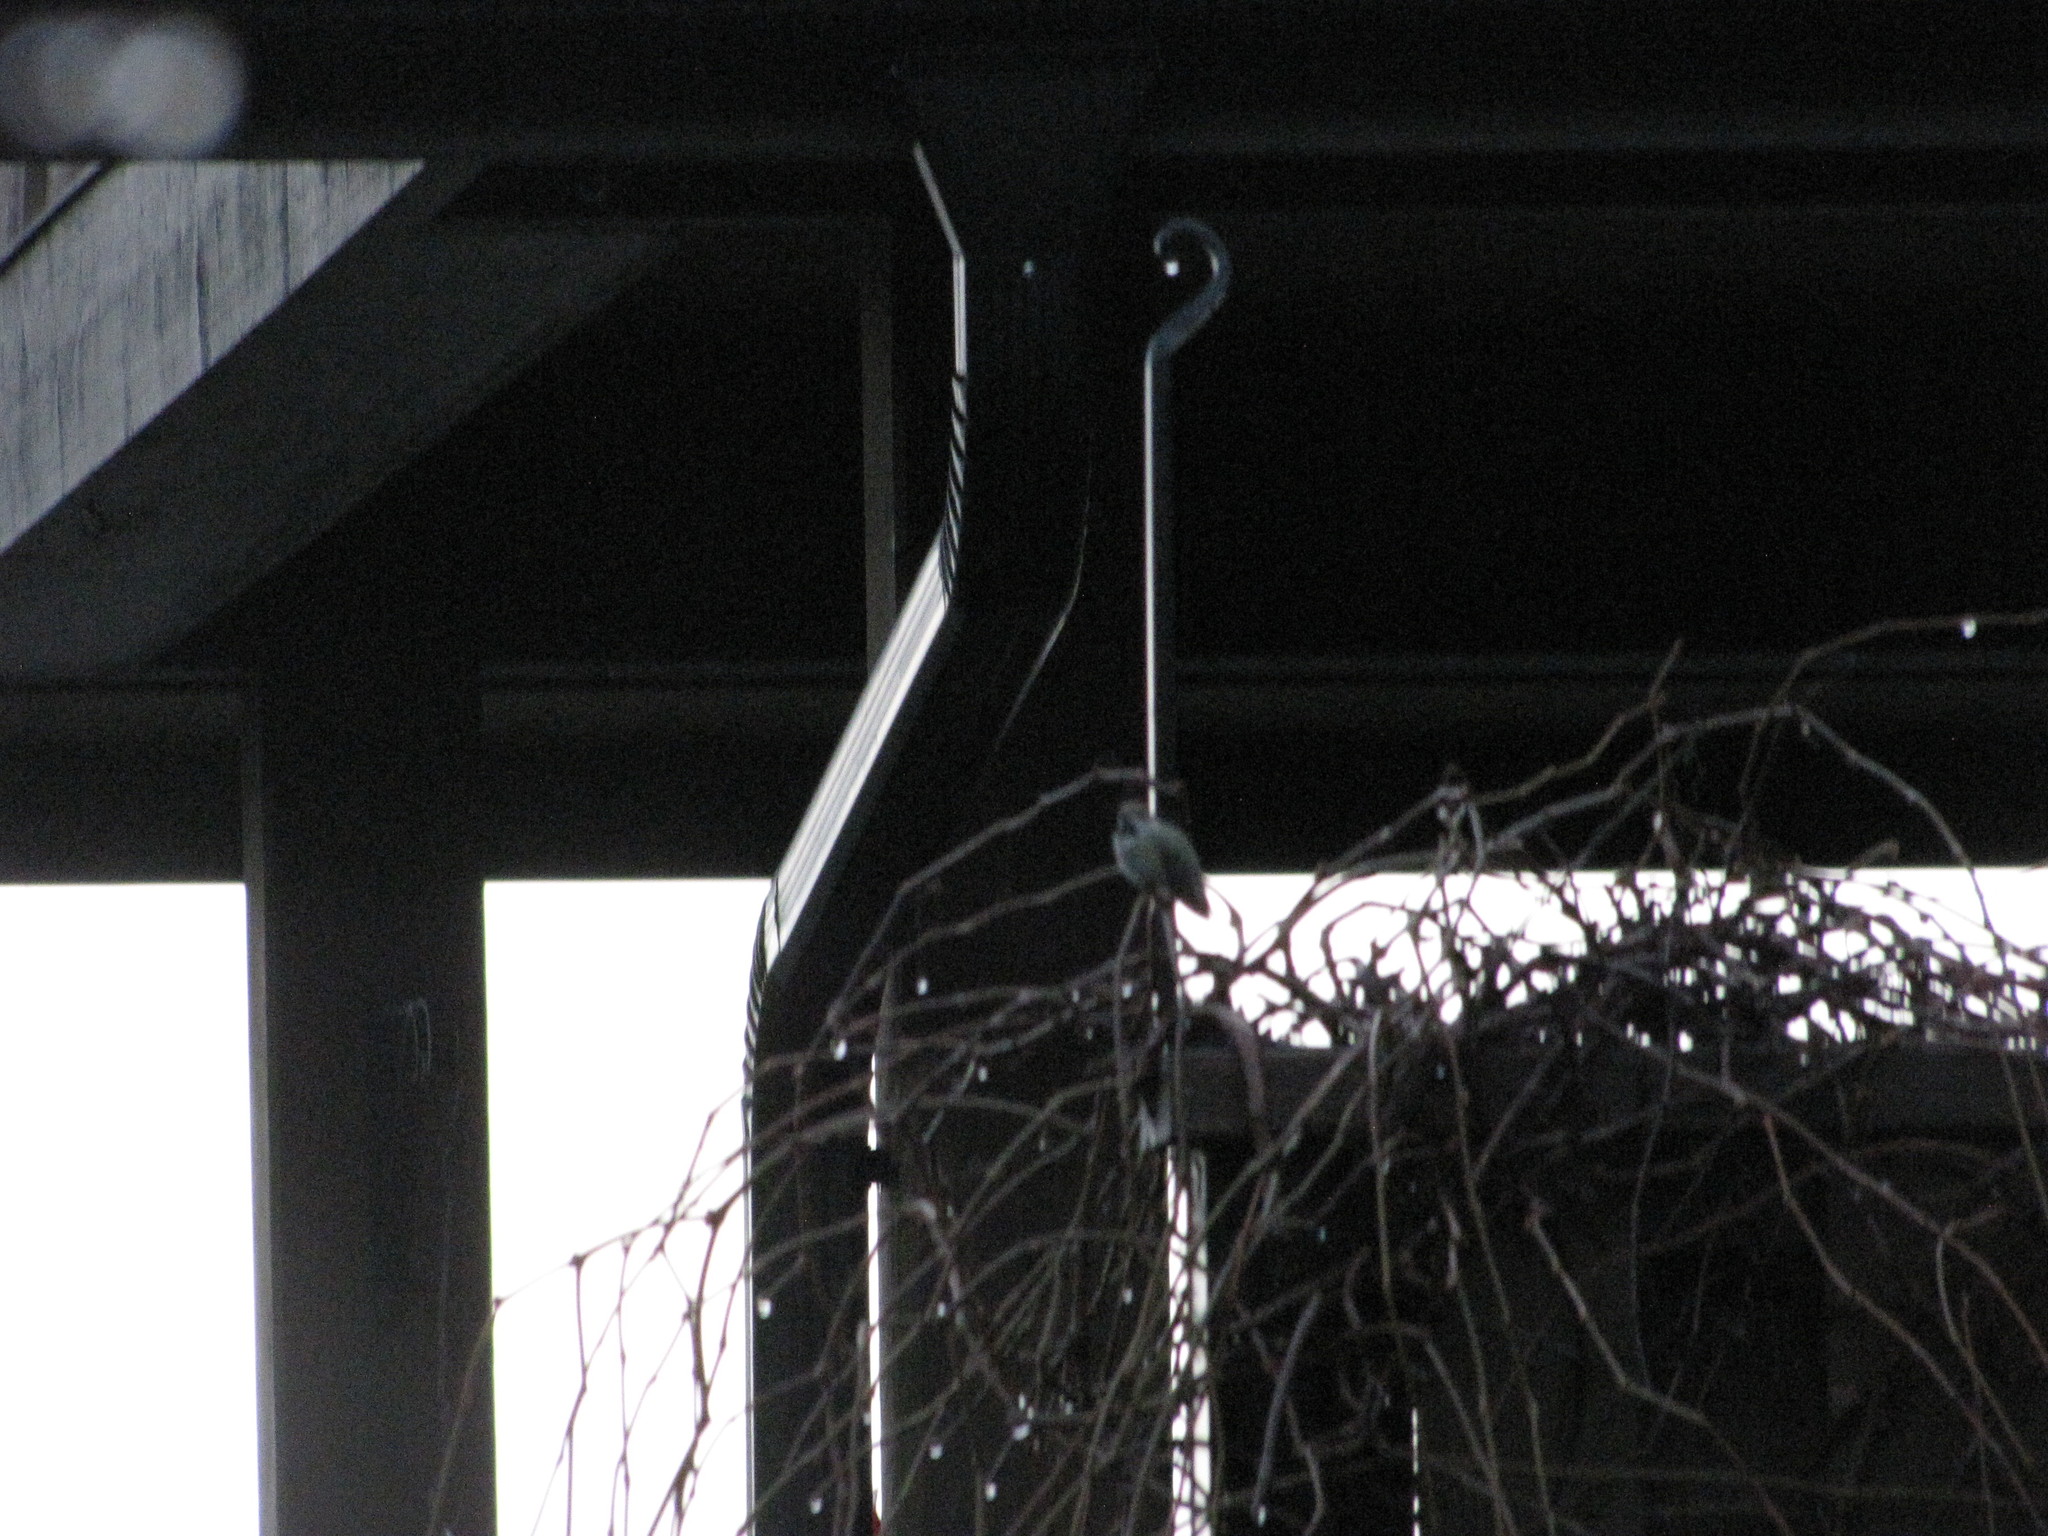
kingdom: Animalia
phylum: Chordata
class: Aves
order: Apodiformes
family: Trochilidae
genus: Calypte
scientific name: Calypte anna
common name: Anna's hummingbird
